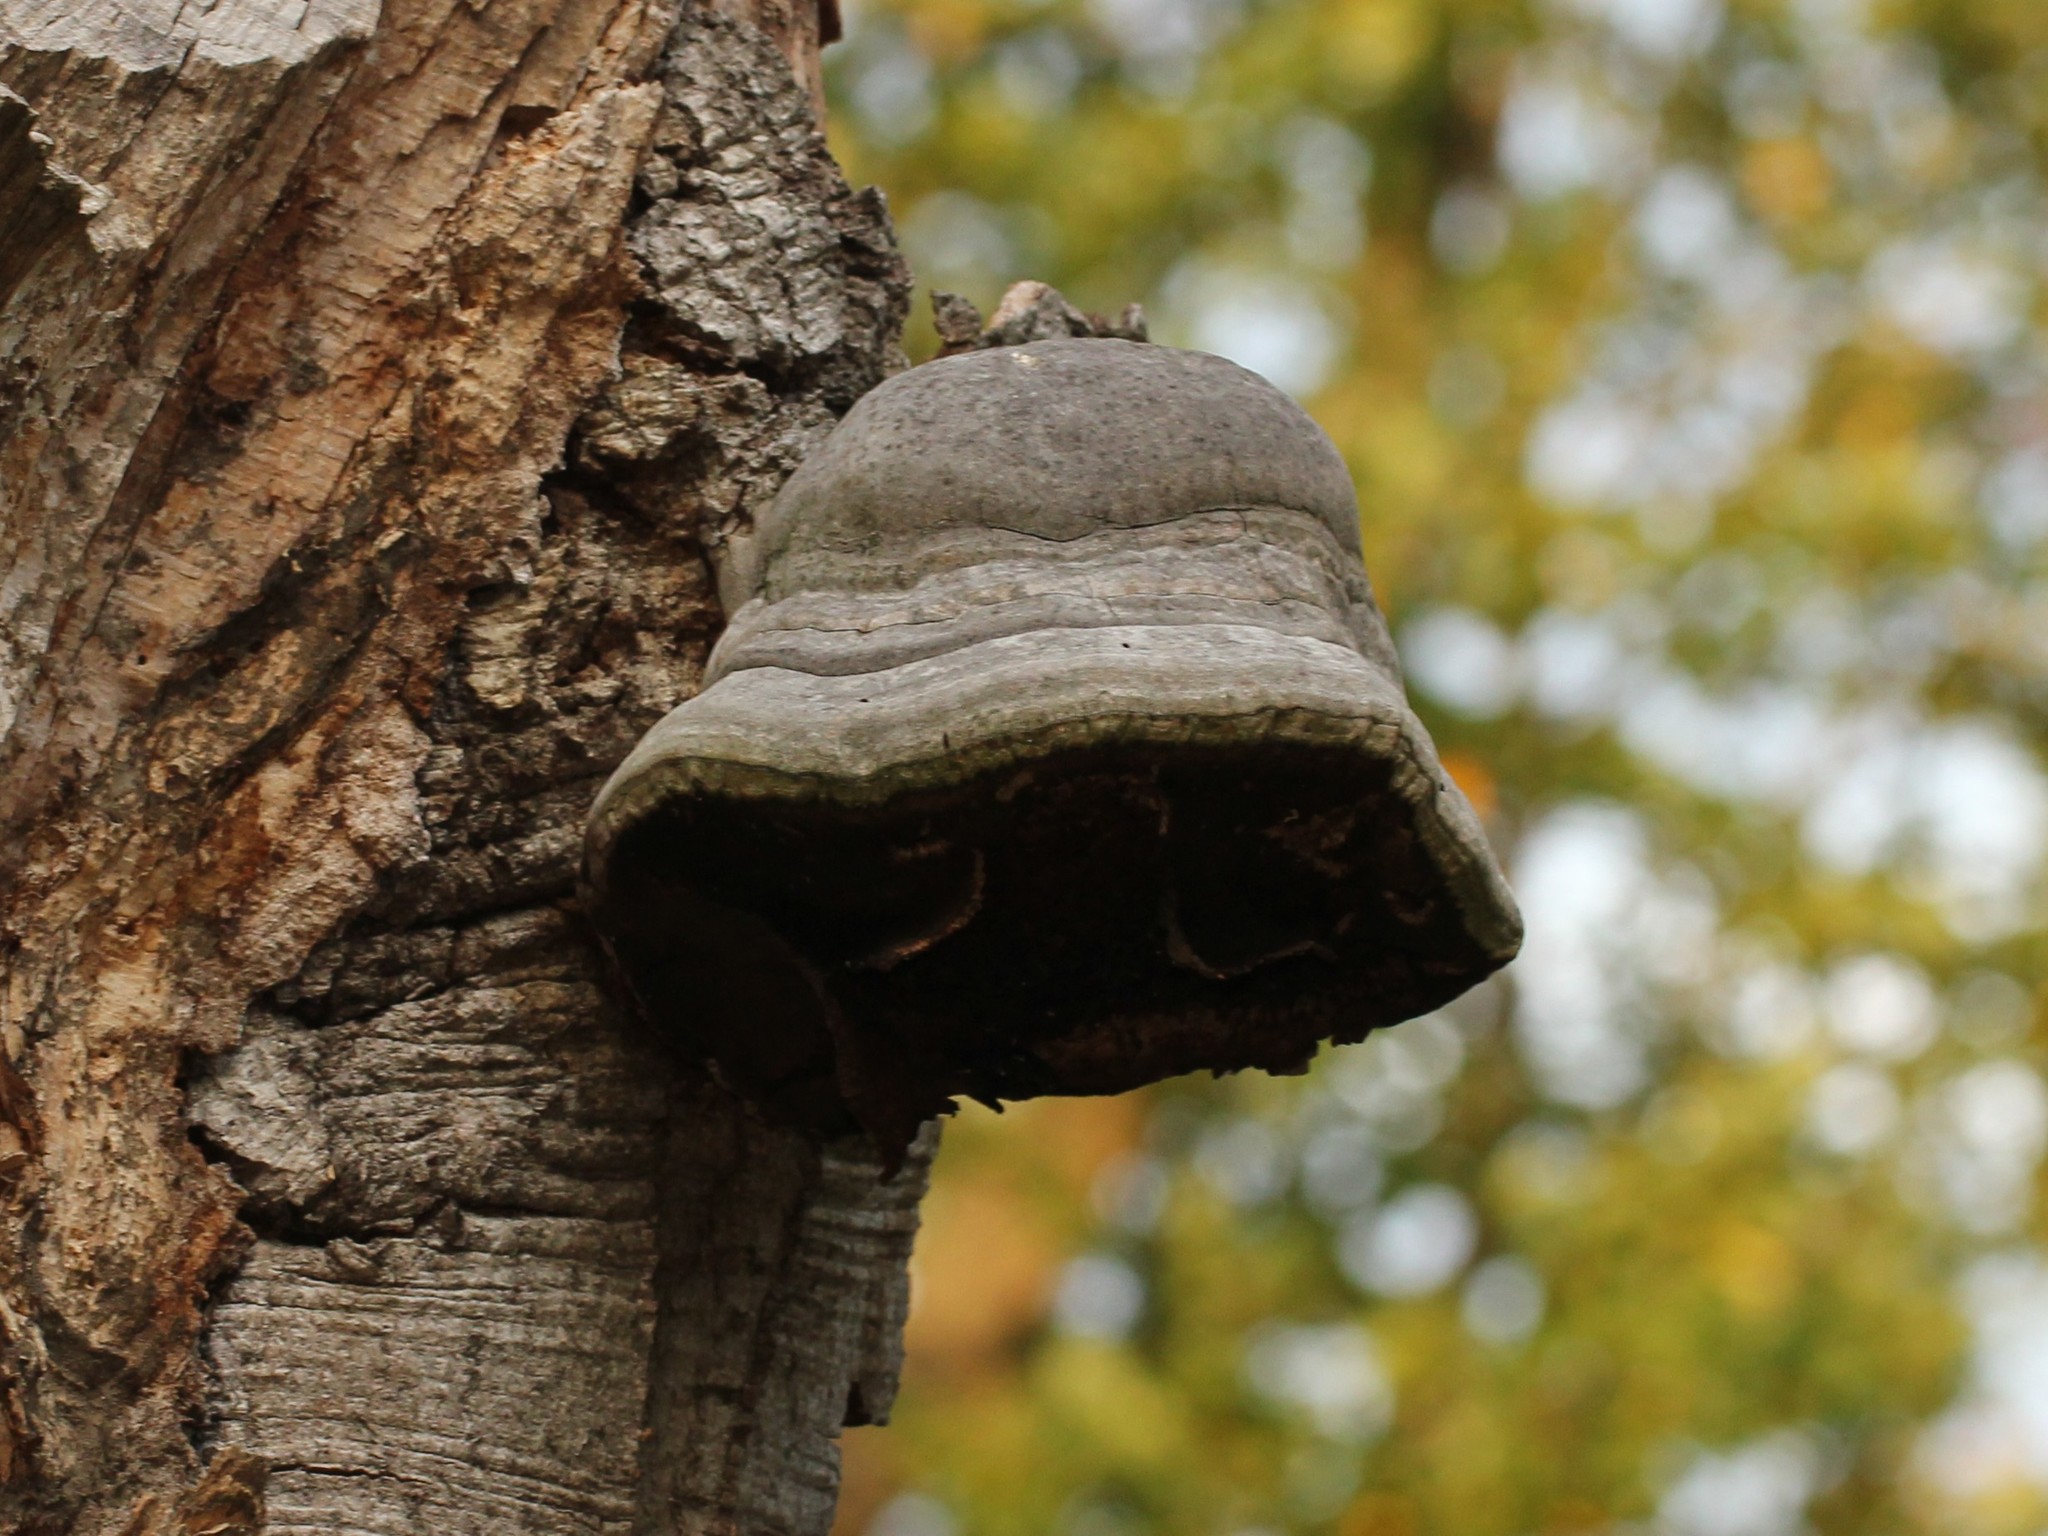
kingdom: Fungi
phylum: Basidiomycota
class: Agaricomycetes
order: Polyporales
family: Polyporaceae
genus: Fomes
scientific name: Fomes fomentarius
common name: Hoof fungus
